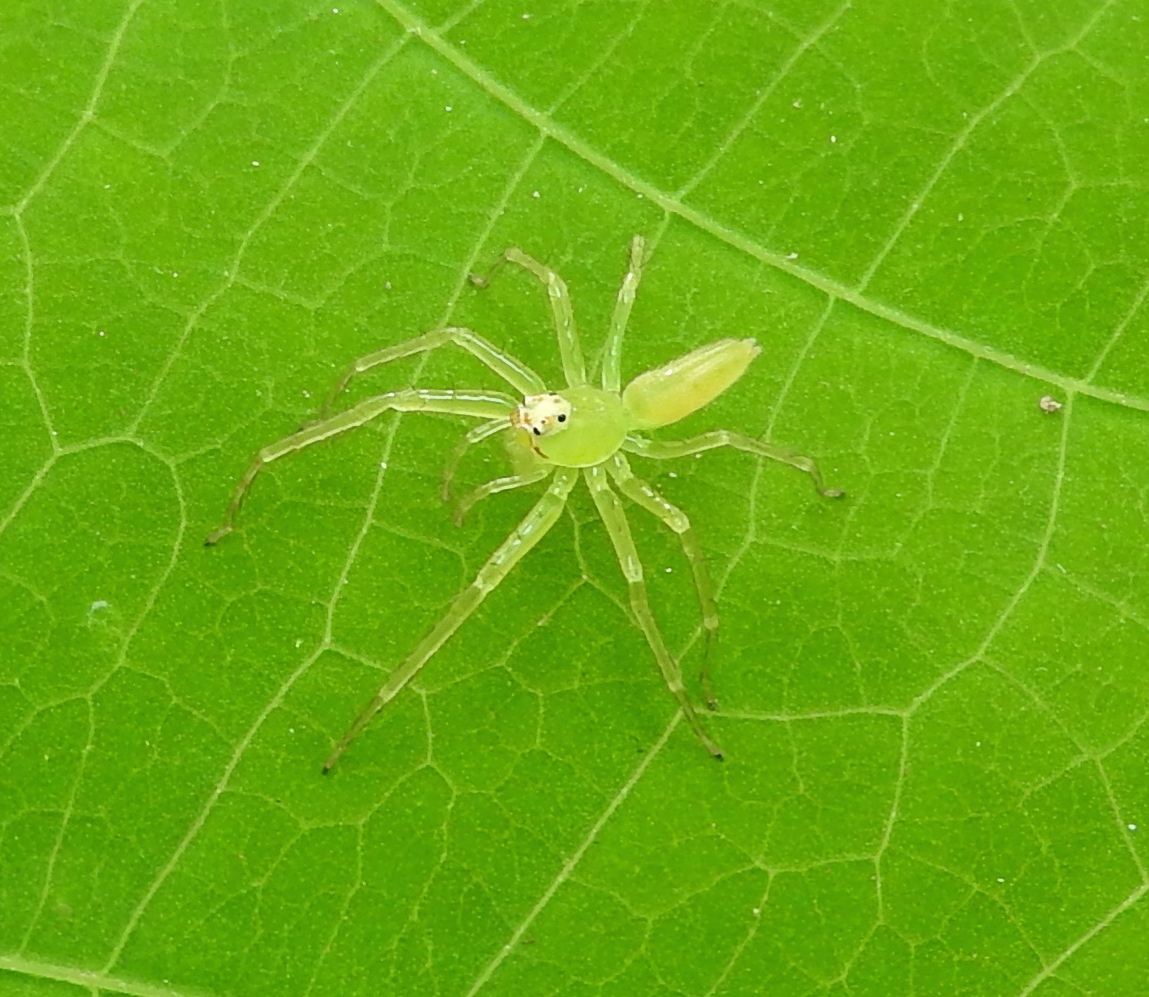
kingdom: Animalia
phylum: Arthropoda
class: Arachnida
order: Araneae
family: Salticidae
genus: Lyssomanes
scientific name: Lyssomanes
